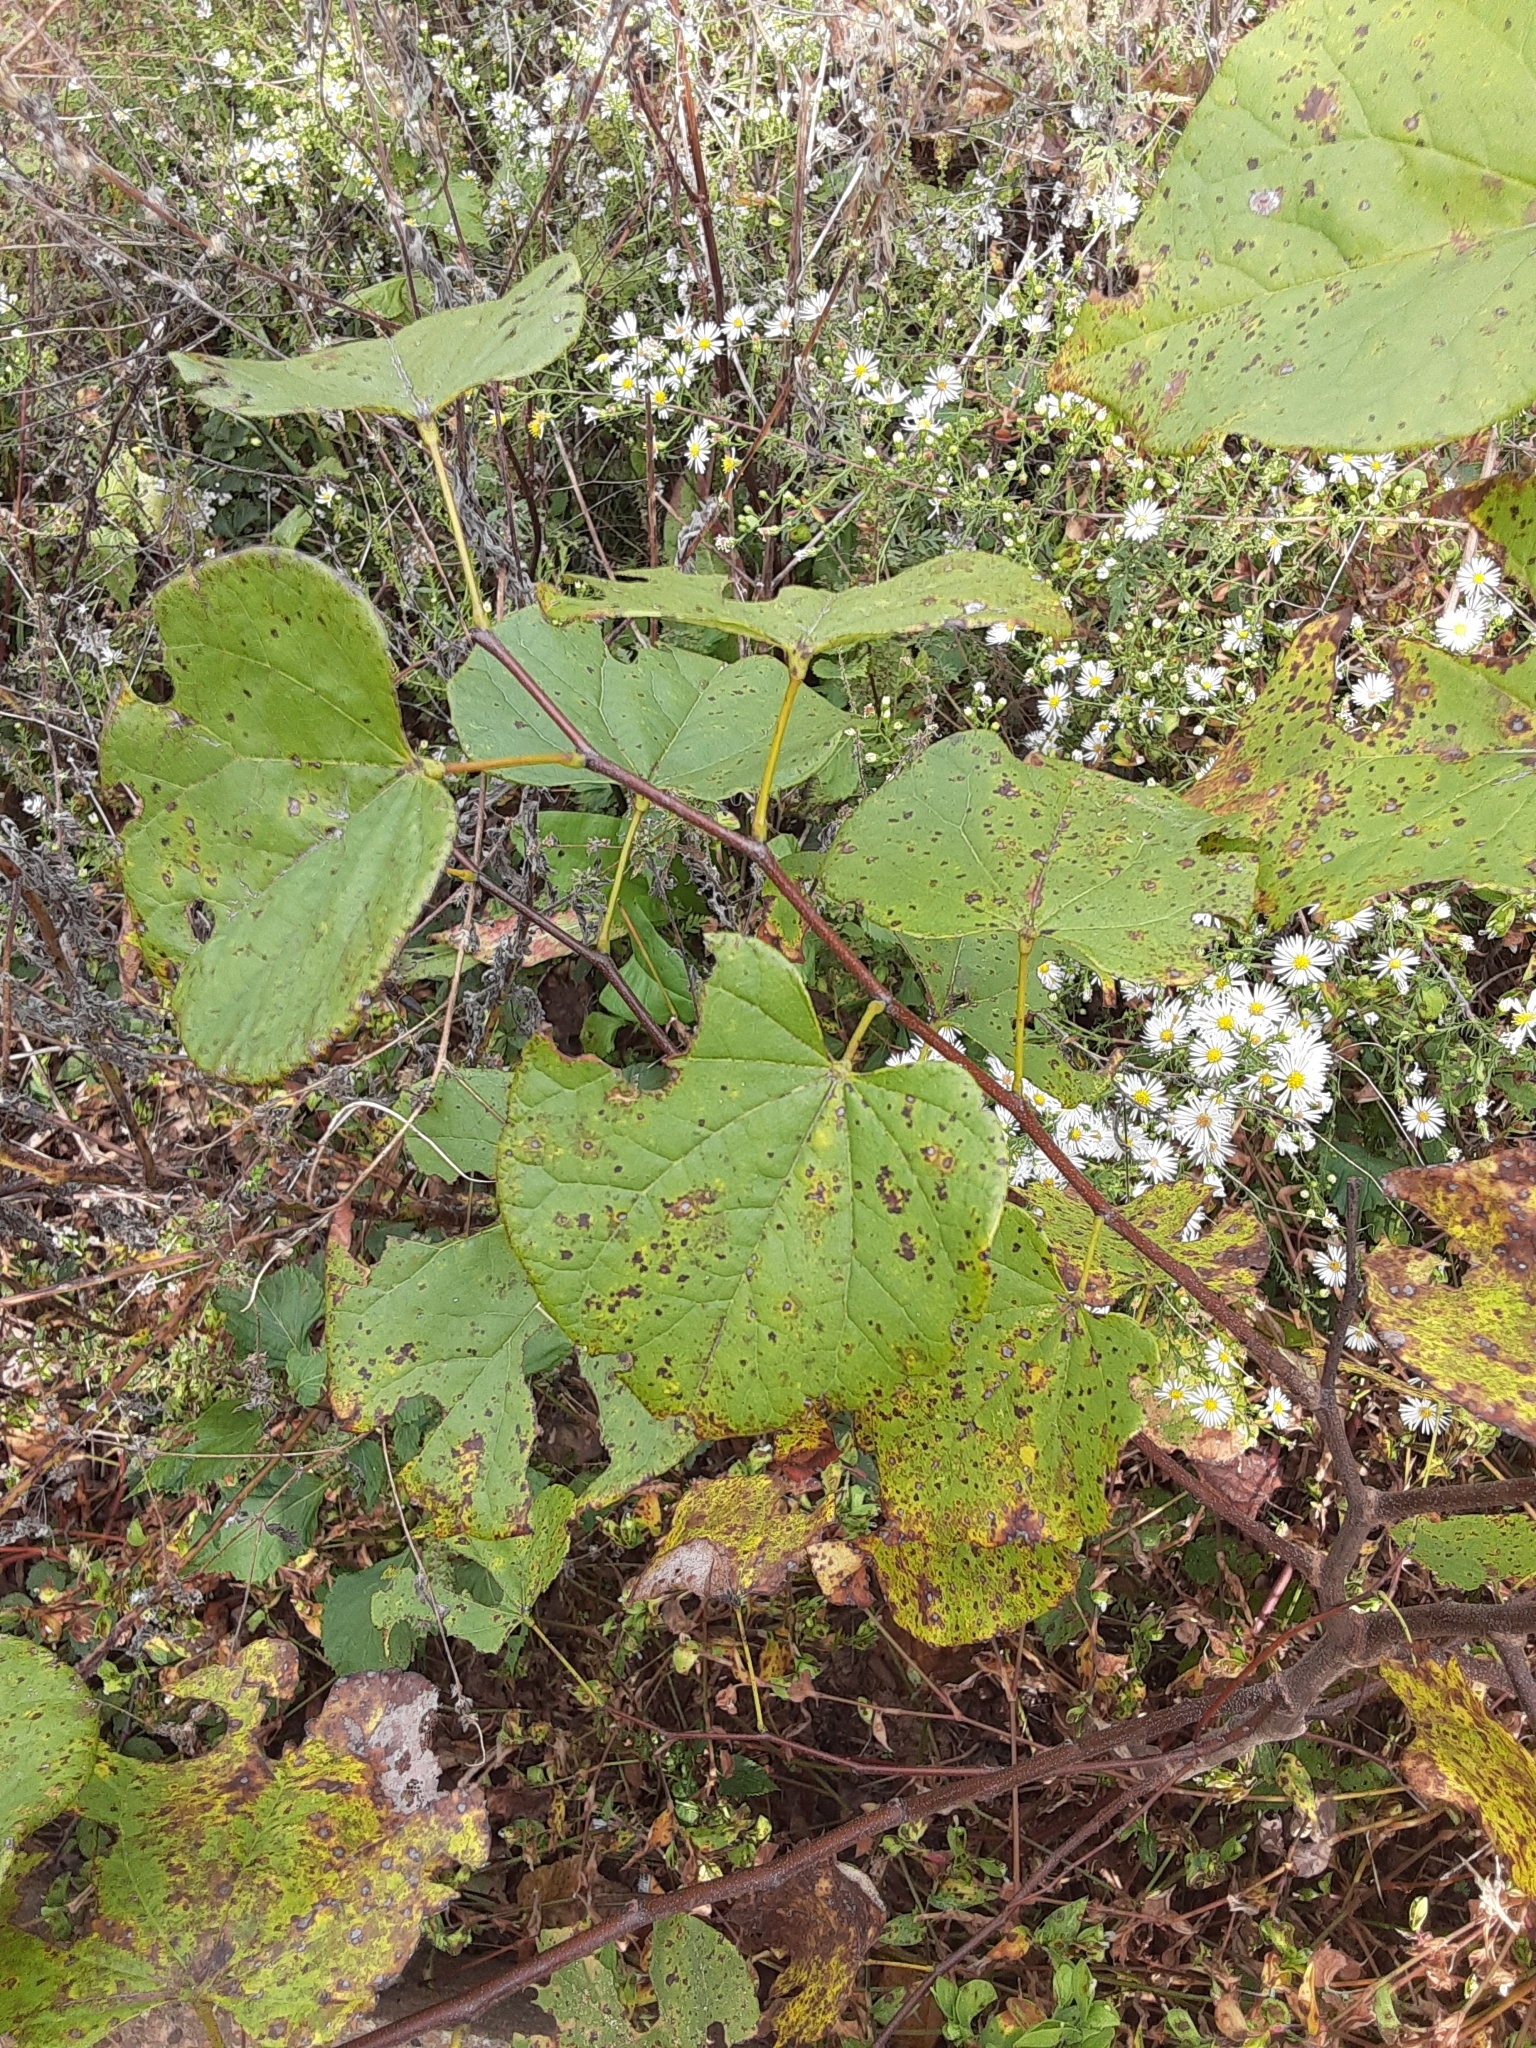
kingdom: Plantae
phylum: Tracheophyta
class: Magnoliopsida
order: Fabales
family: Fabaceae
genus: Cercis
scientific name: Cercis canadensis
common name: Eastern redbud
